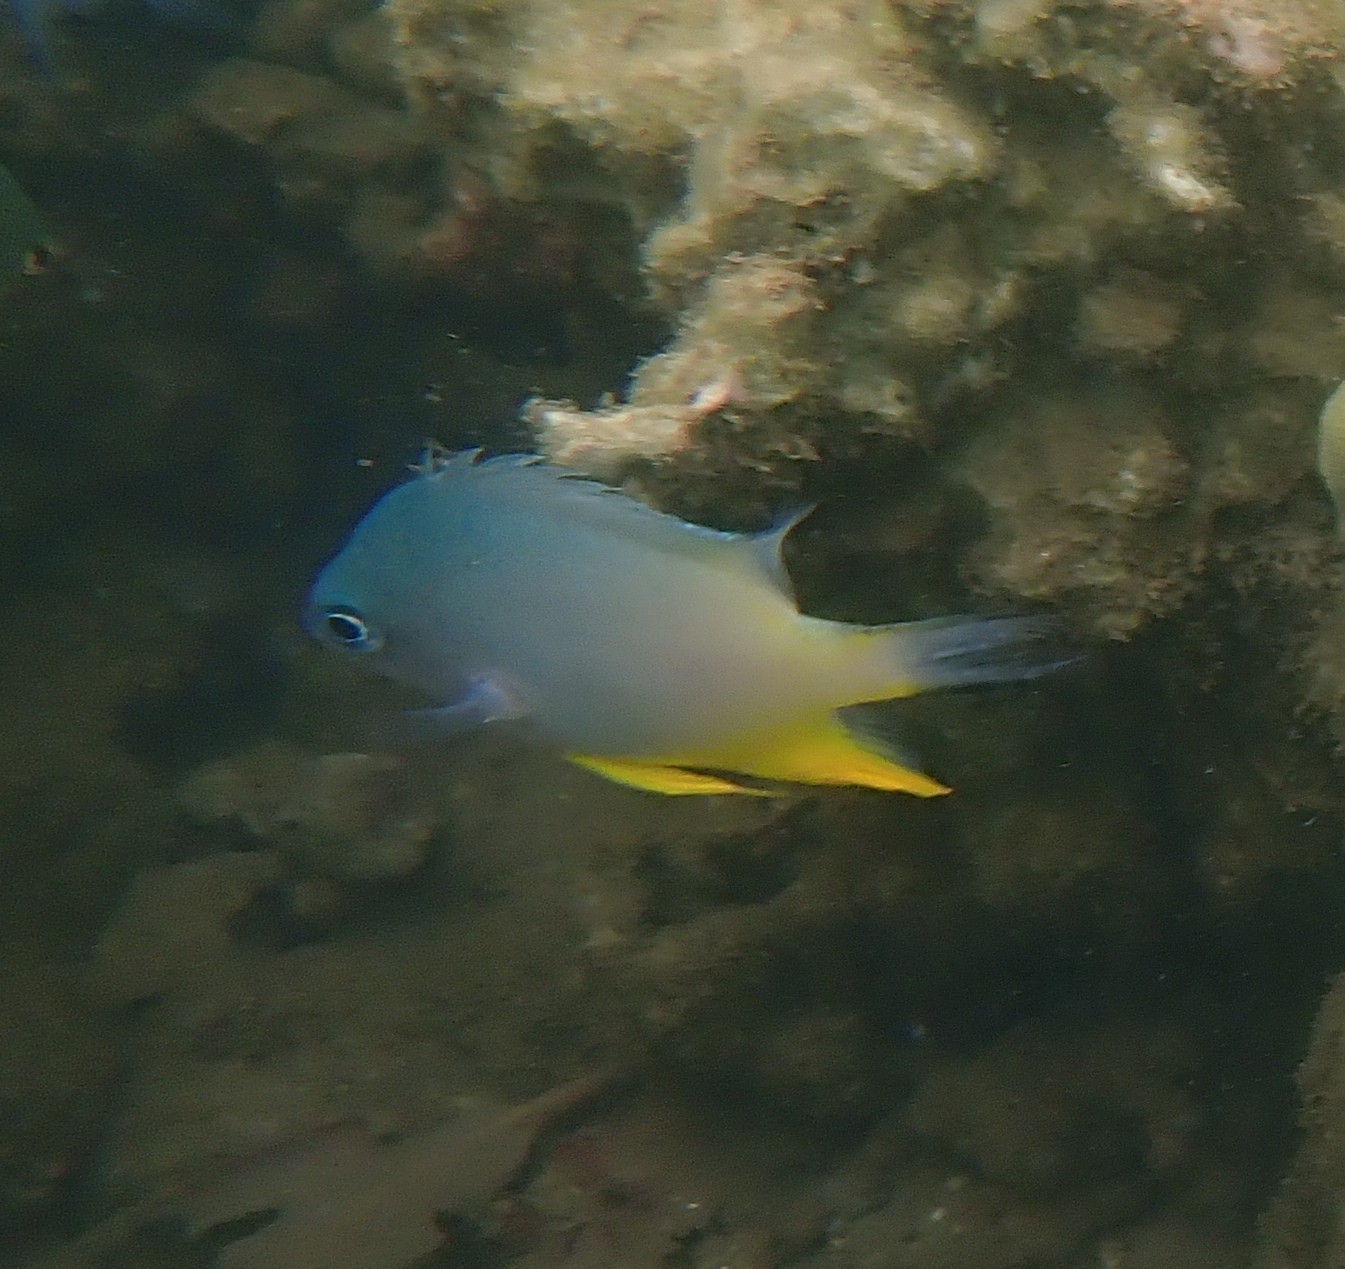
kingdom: Animalia
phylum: Chordata
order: Perciformes
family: Pomacentridae
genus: Amblyglyphidodon
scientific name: Amblyglyphidodon orbicularis
